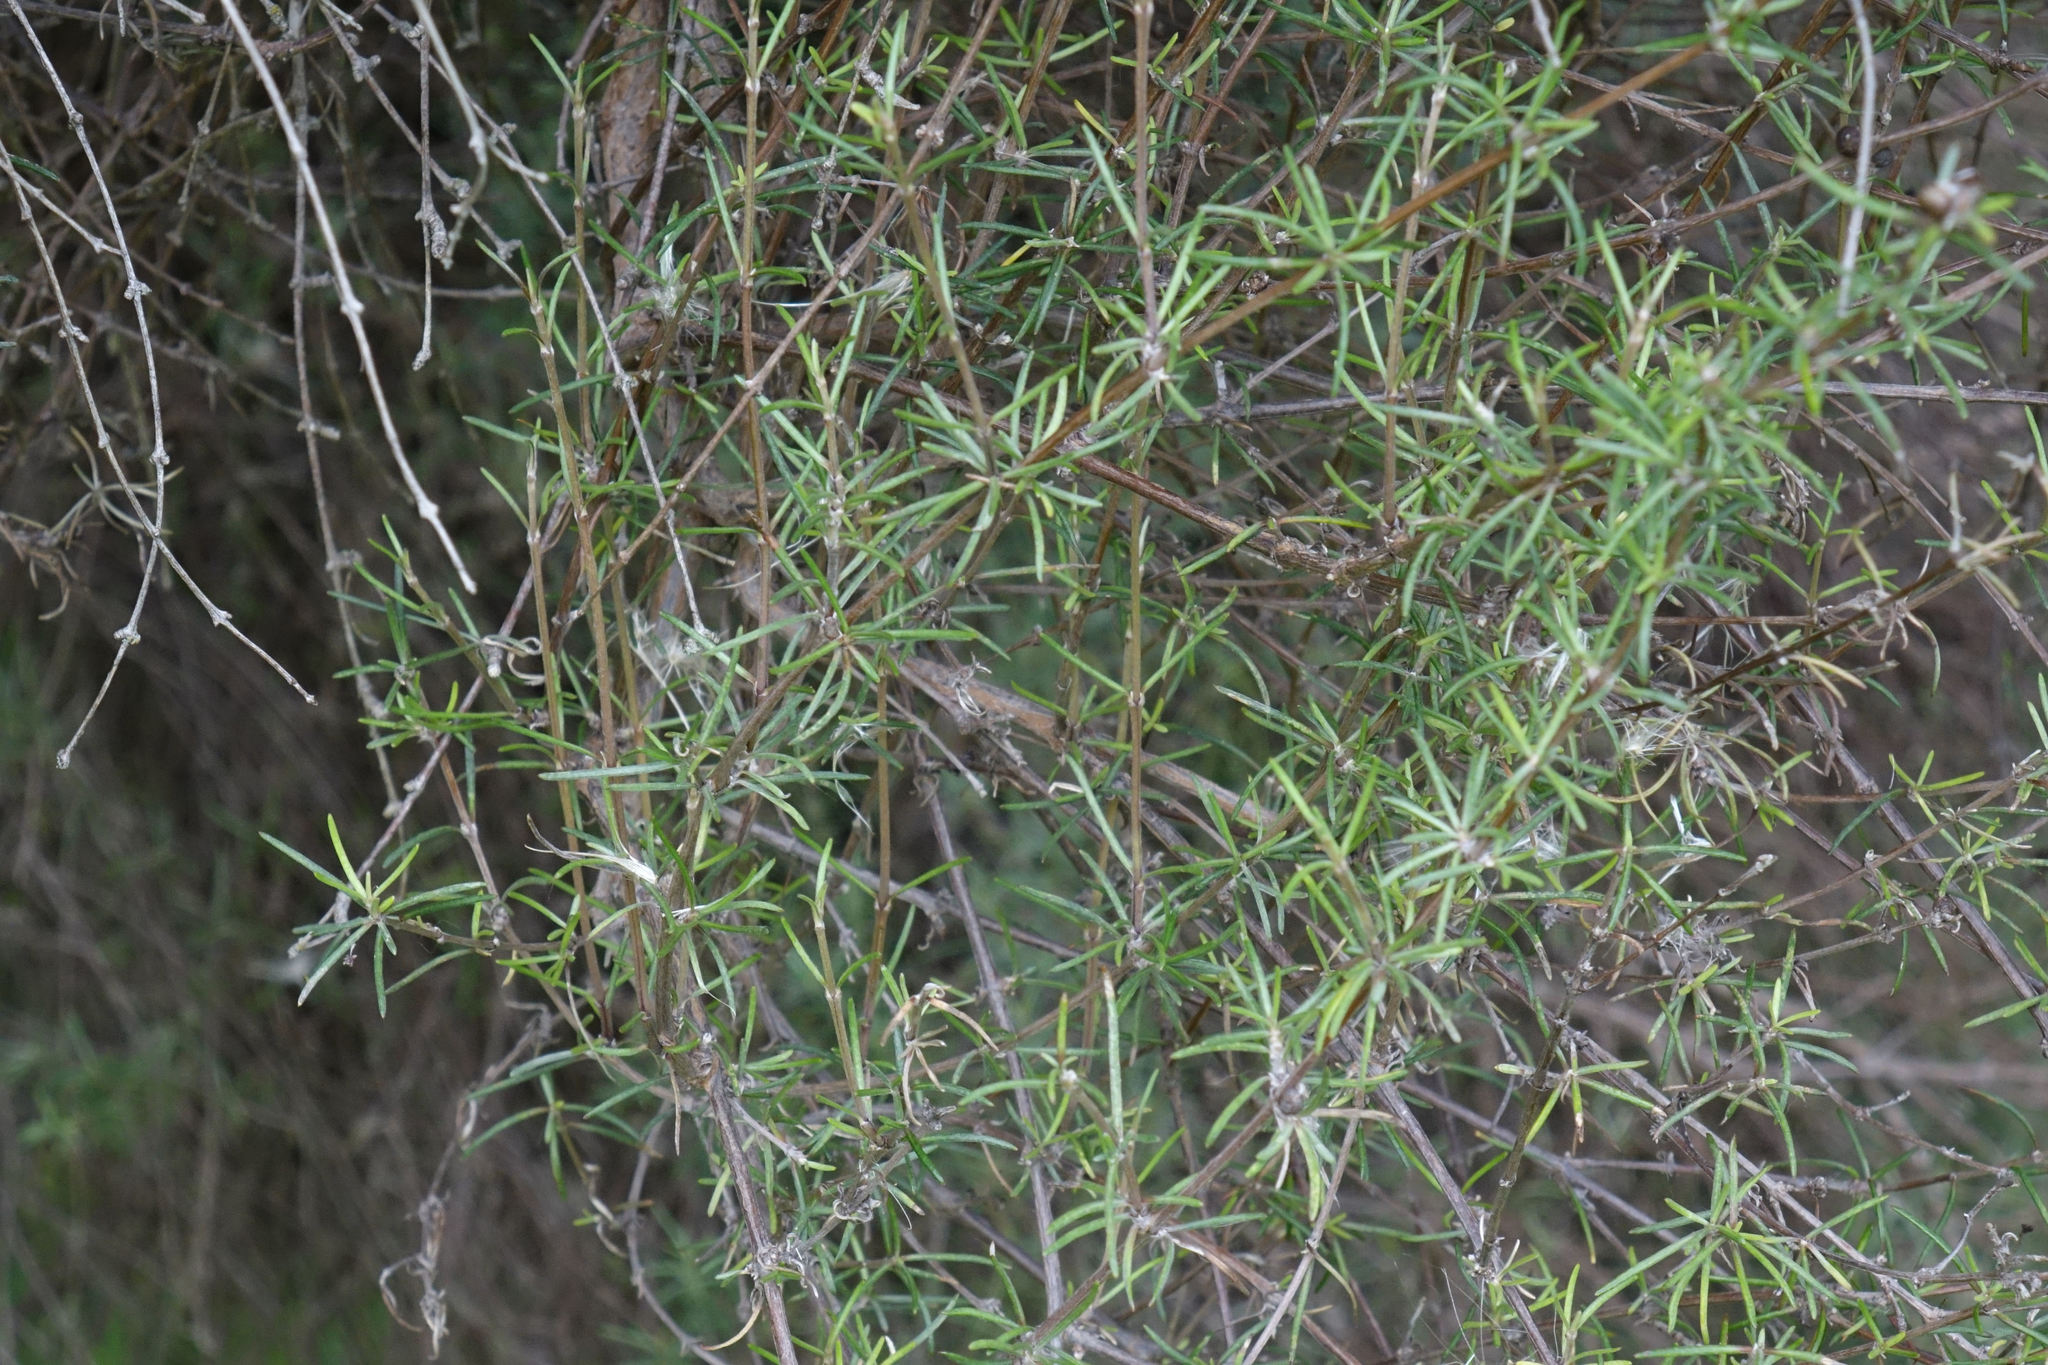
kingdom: Plantae
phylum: Tracheophyta
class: Magnoliopsida
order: Asterales
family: Asteraceae
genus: Olearia
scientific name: Olearia lineata
